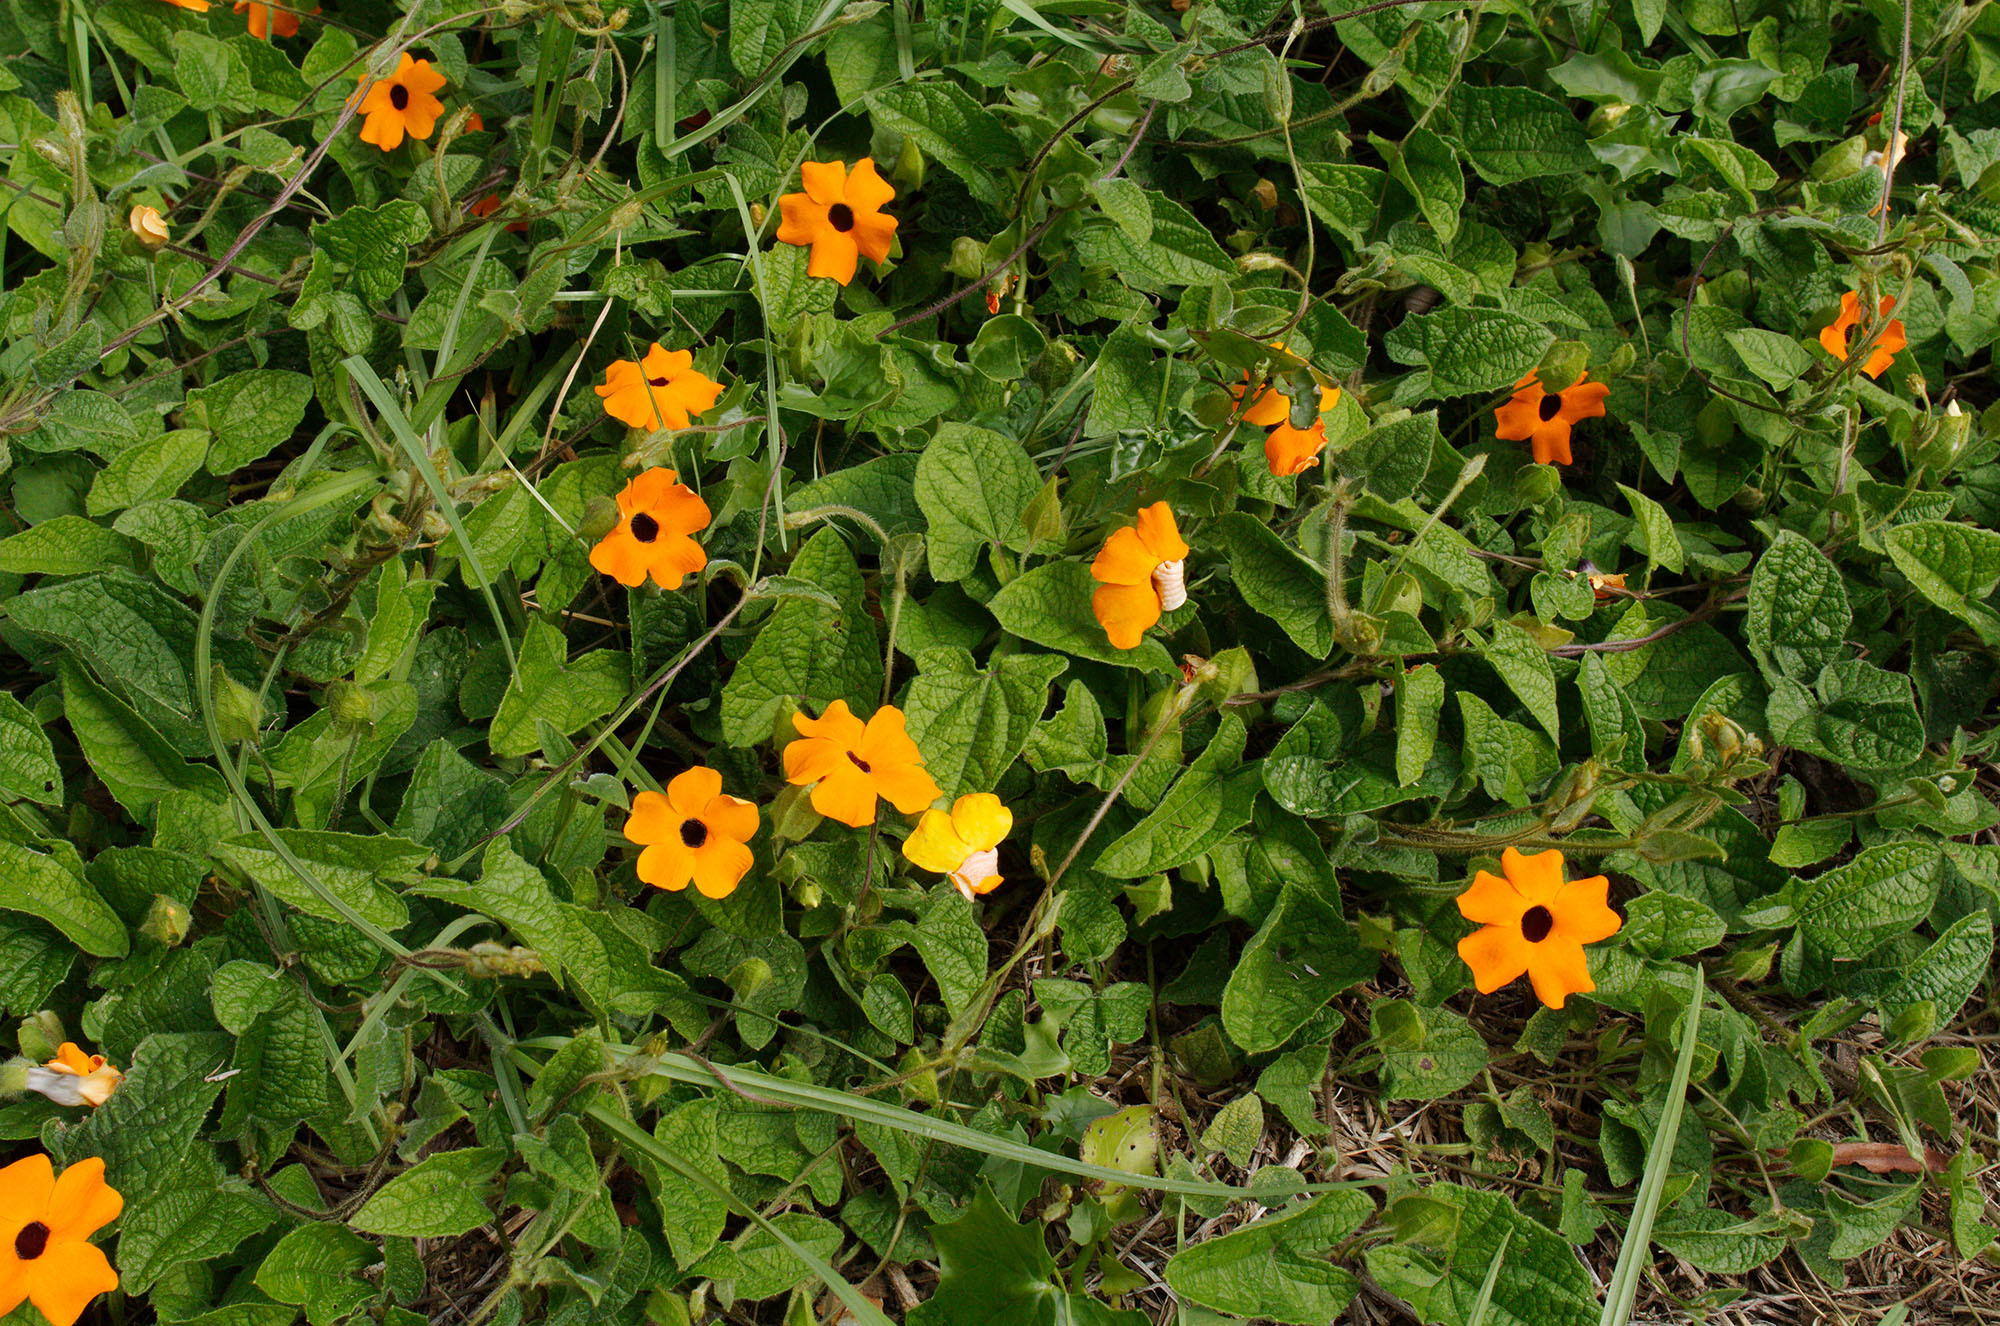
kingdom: Plantae
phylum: Tracheophyta
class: Magnoliopsida
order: Lamiales
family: Acanthaceae
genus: Thunbergia
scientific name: Thunbergia alata
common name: Blackeyed susan vine
